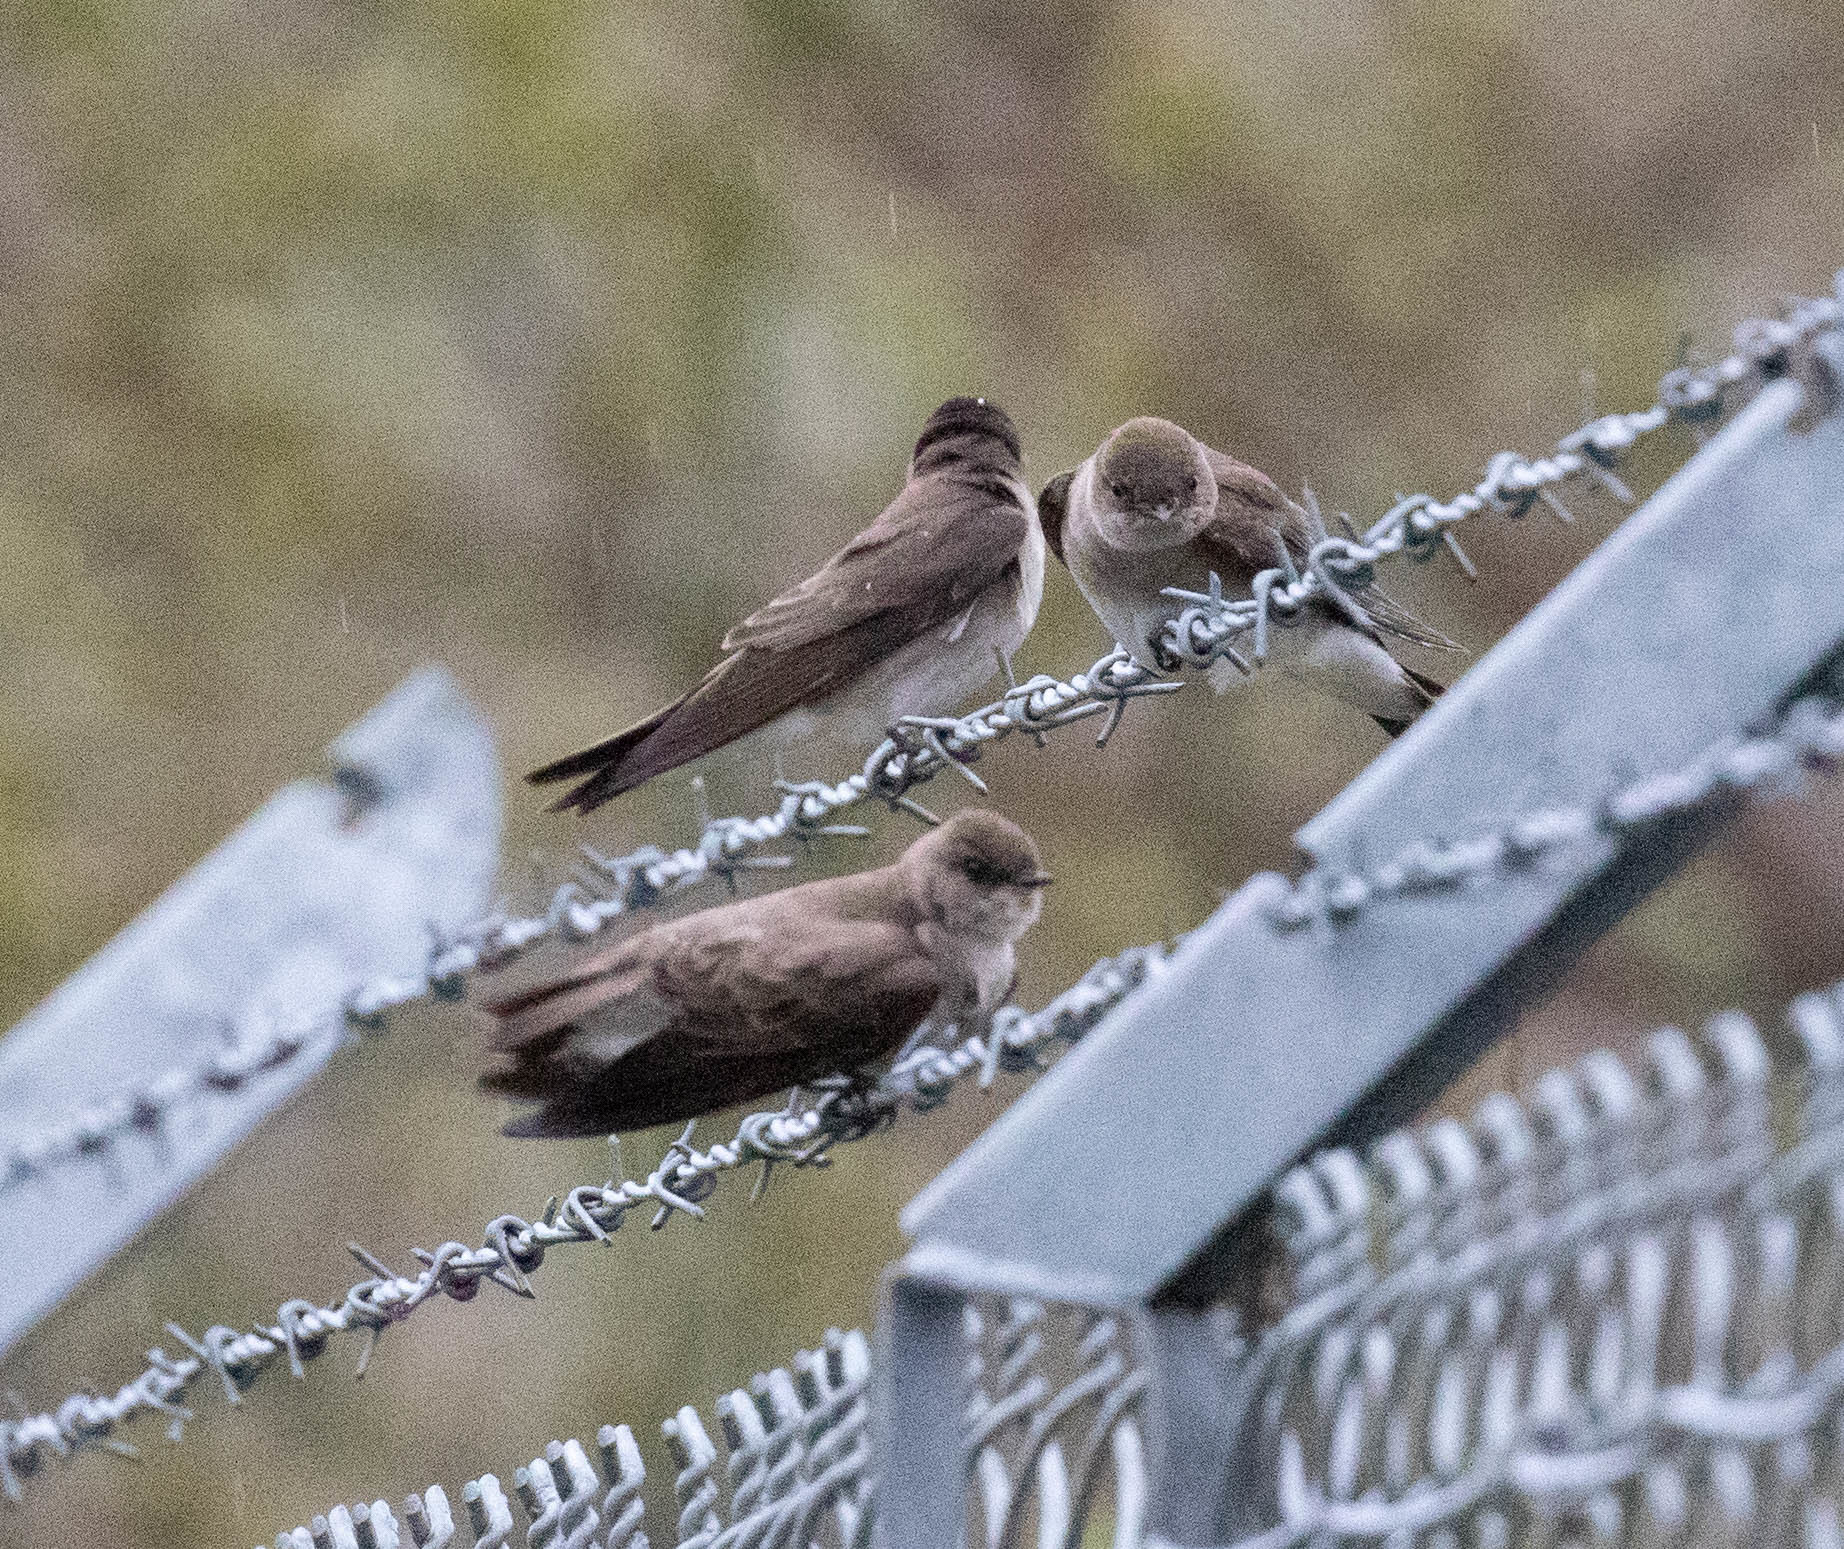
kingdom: Animalia
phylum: Chordata
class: Aves
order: Passeriformes
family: Hirundinidae
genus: Stelgidopteryx
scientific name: Stelgidopteryx serripennis
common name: Northern rough-winged swallow
